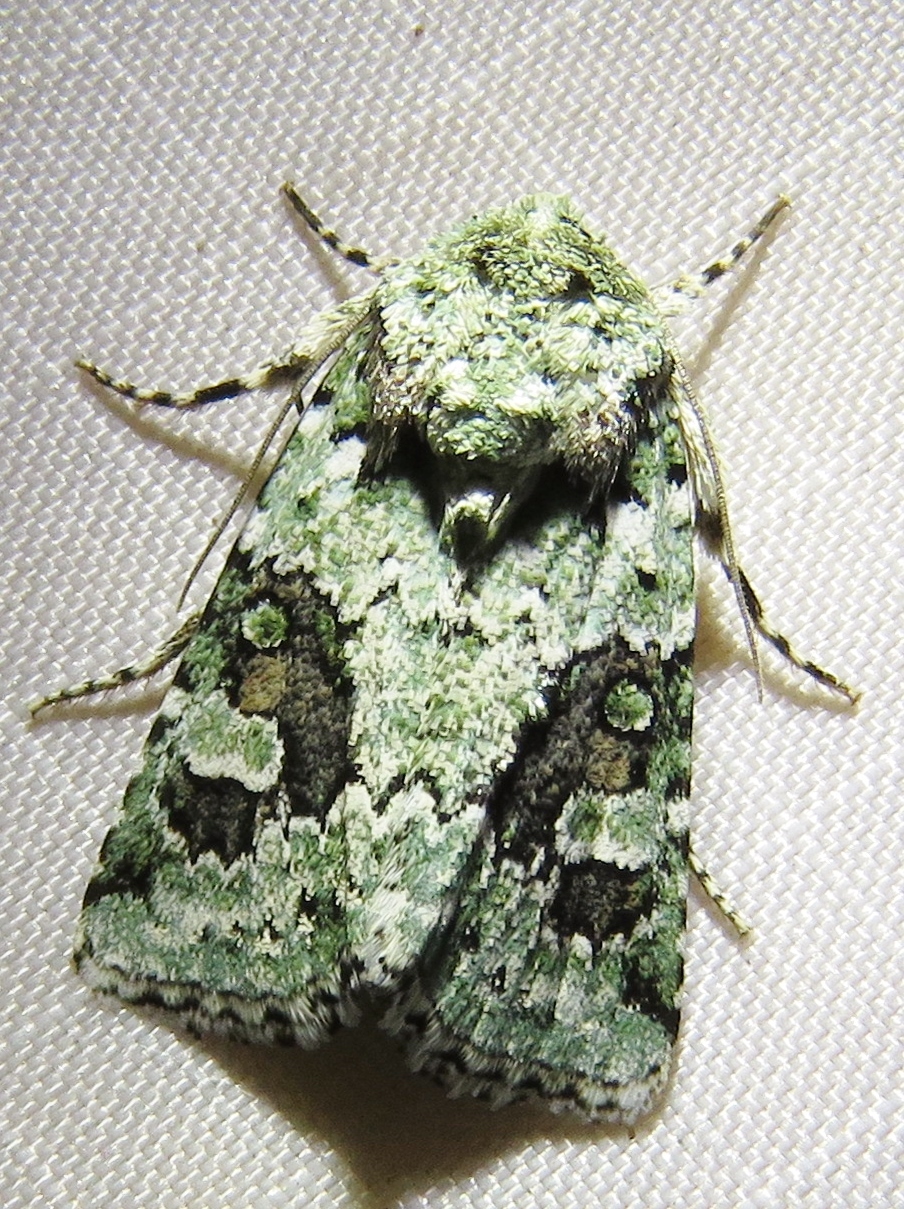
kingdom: Animalia
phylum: Arthropoda
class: Insecta
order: Lepidoptera
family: Noctuidae
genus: Lacinipolia
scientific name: Lacinipolia laudabilis
